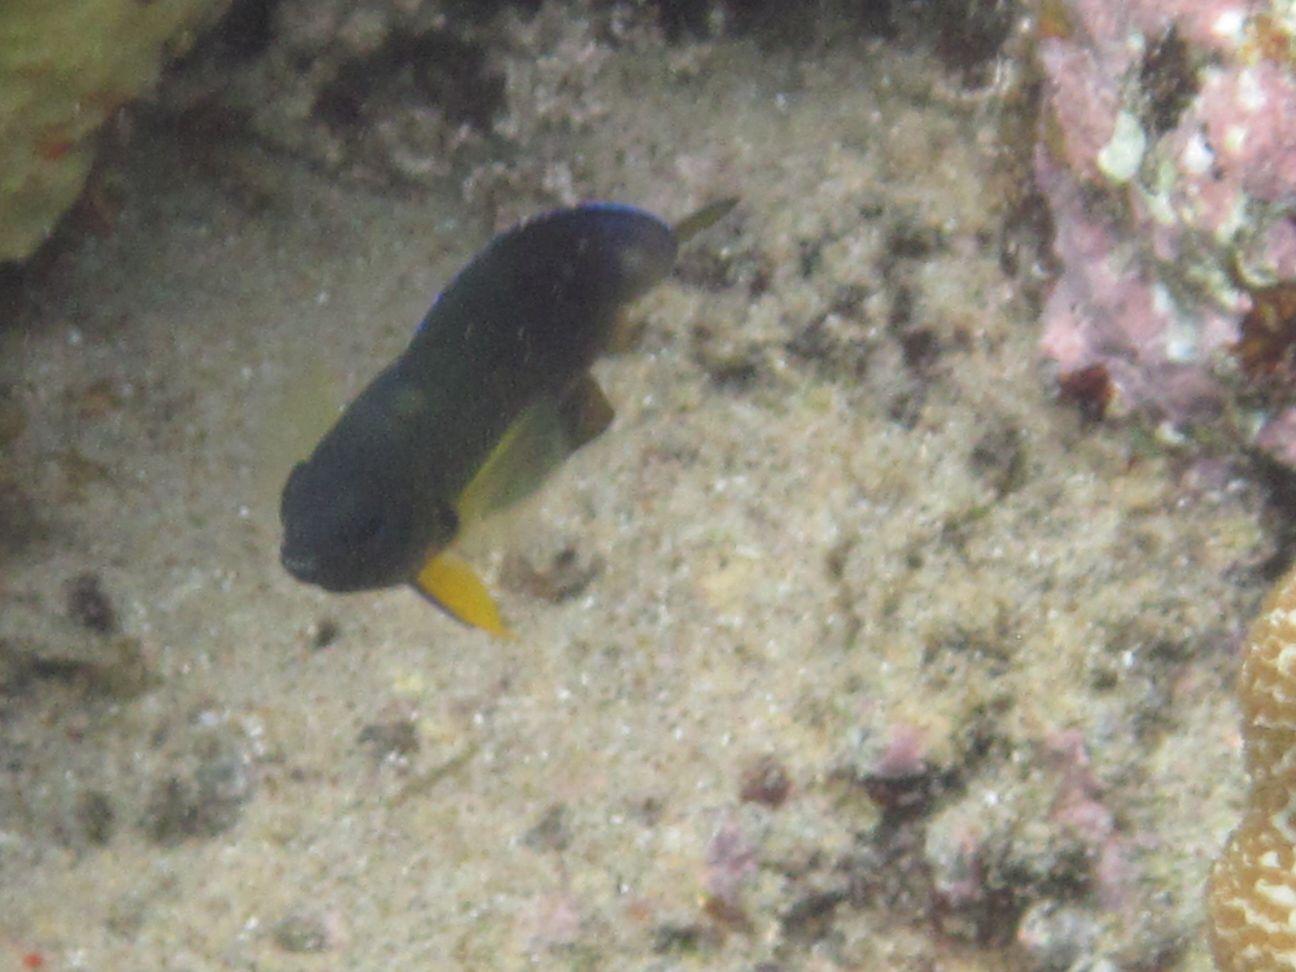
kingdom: Animalia
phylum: Chordata
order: Perciformes
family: Pomacentridae
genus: Chromis
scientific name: Chromis nigrura
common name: Blacktail chromis
